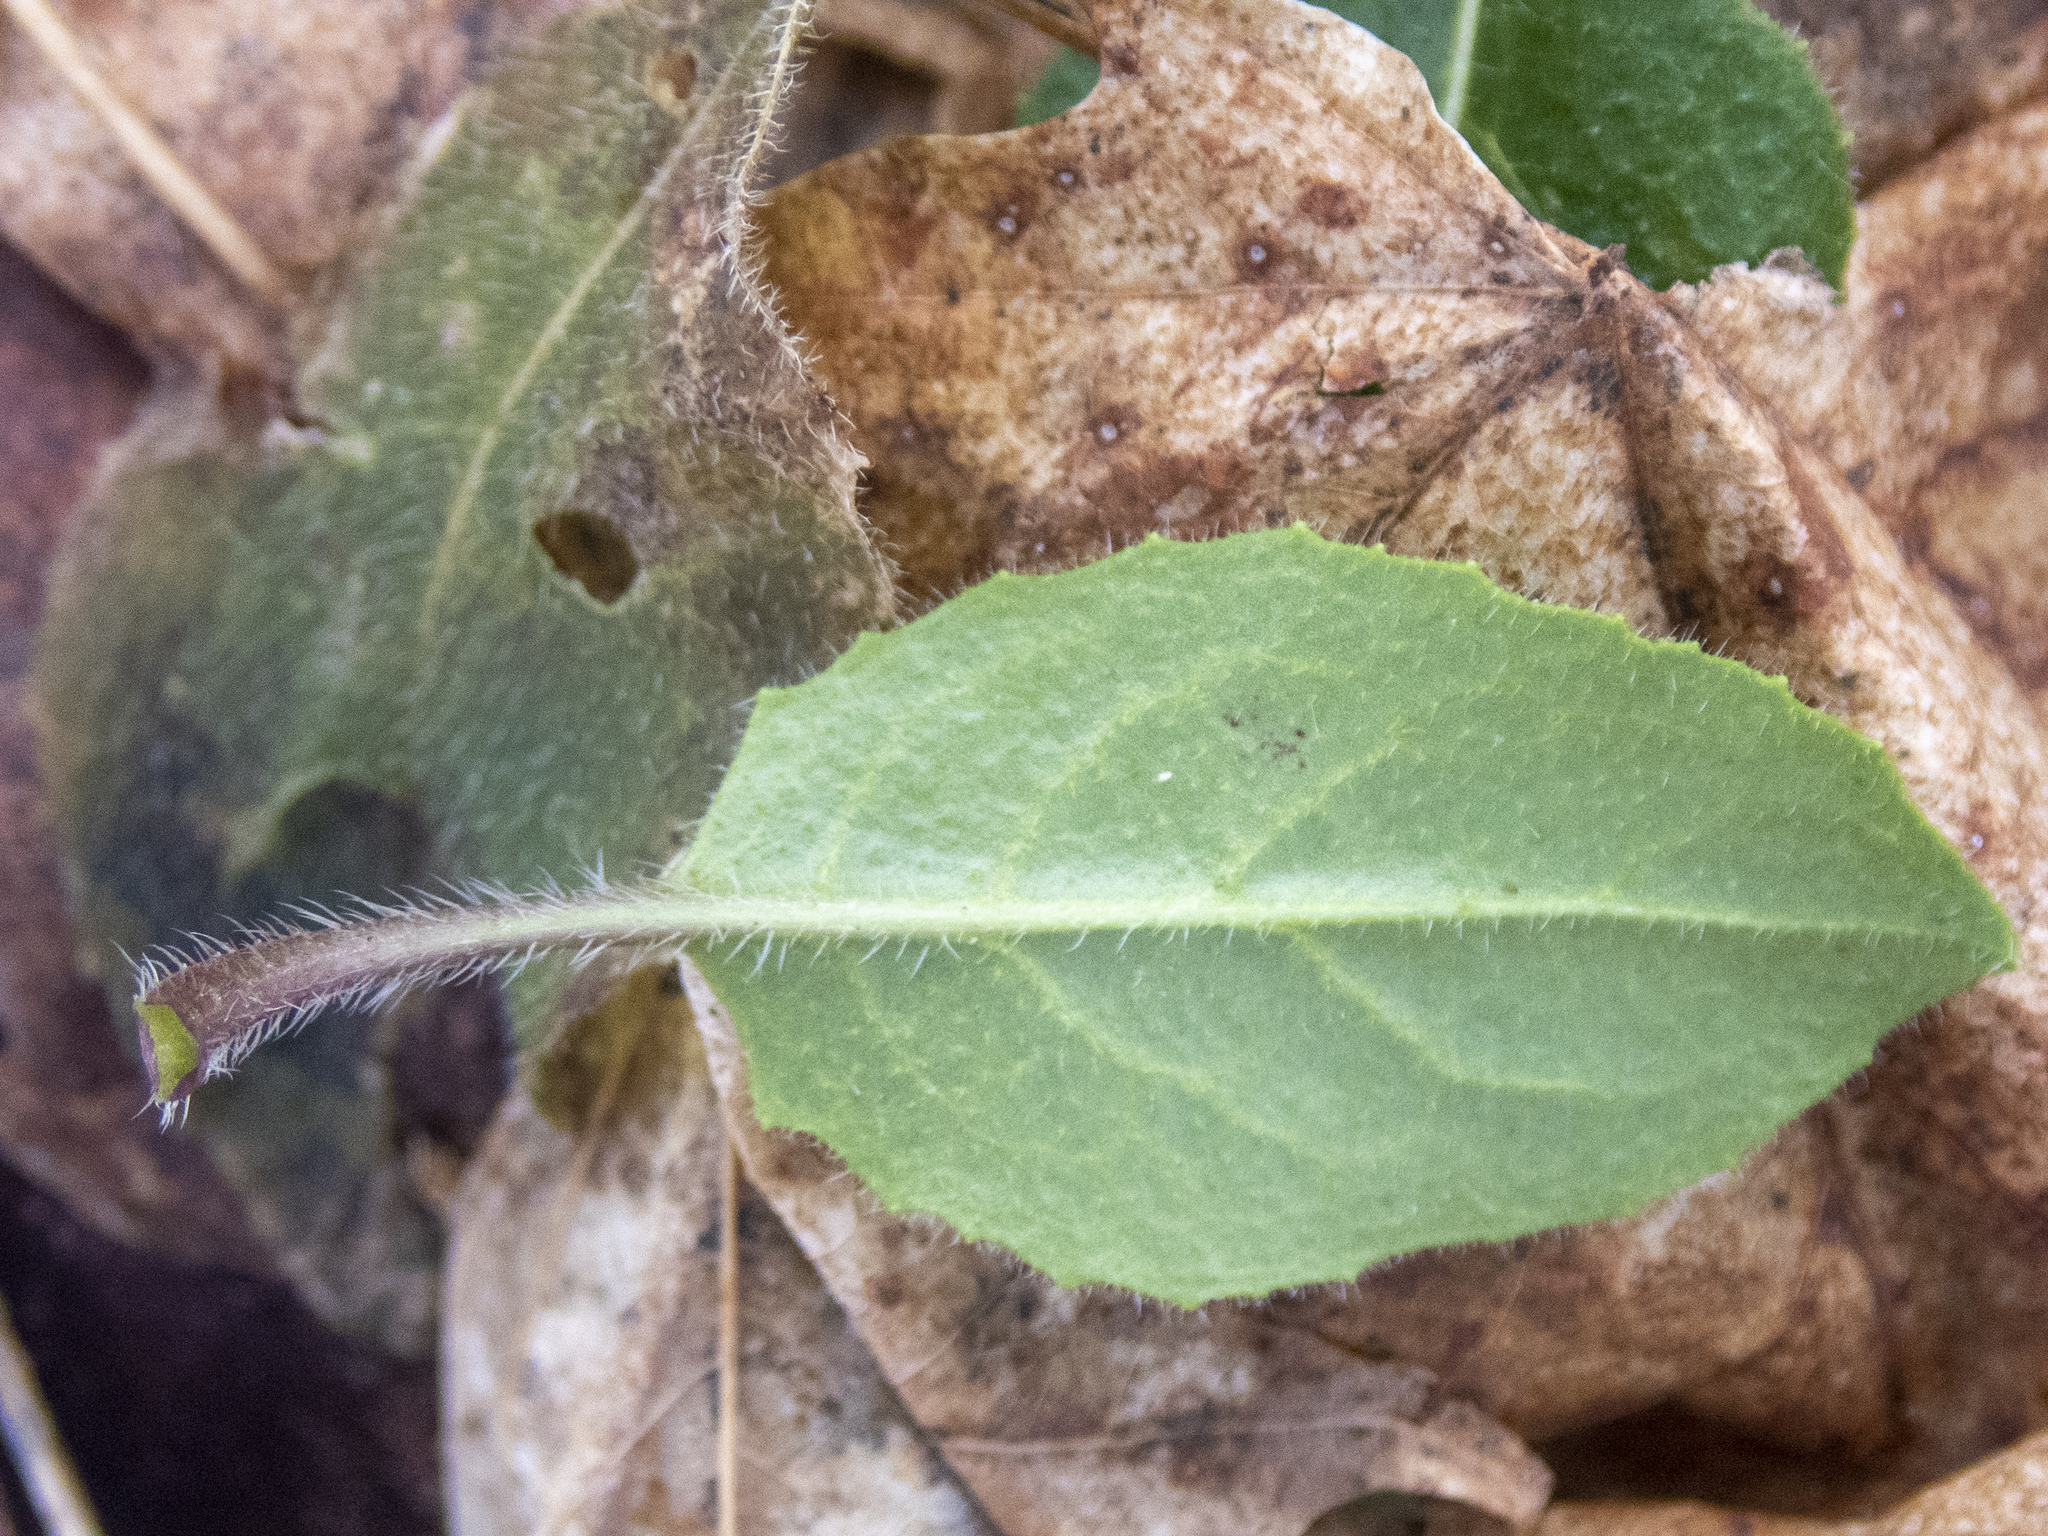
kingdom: Plantae
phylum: Tracheophyta
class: Magnoliopsida
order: Brassicales
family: Brassicaceae
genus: Hesperis
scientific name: Hesperis matronalis
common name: Dame's-violet
